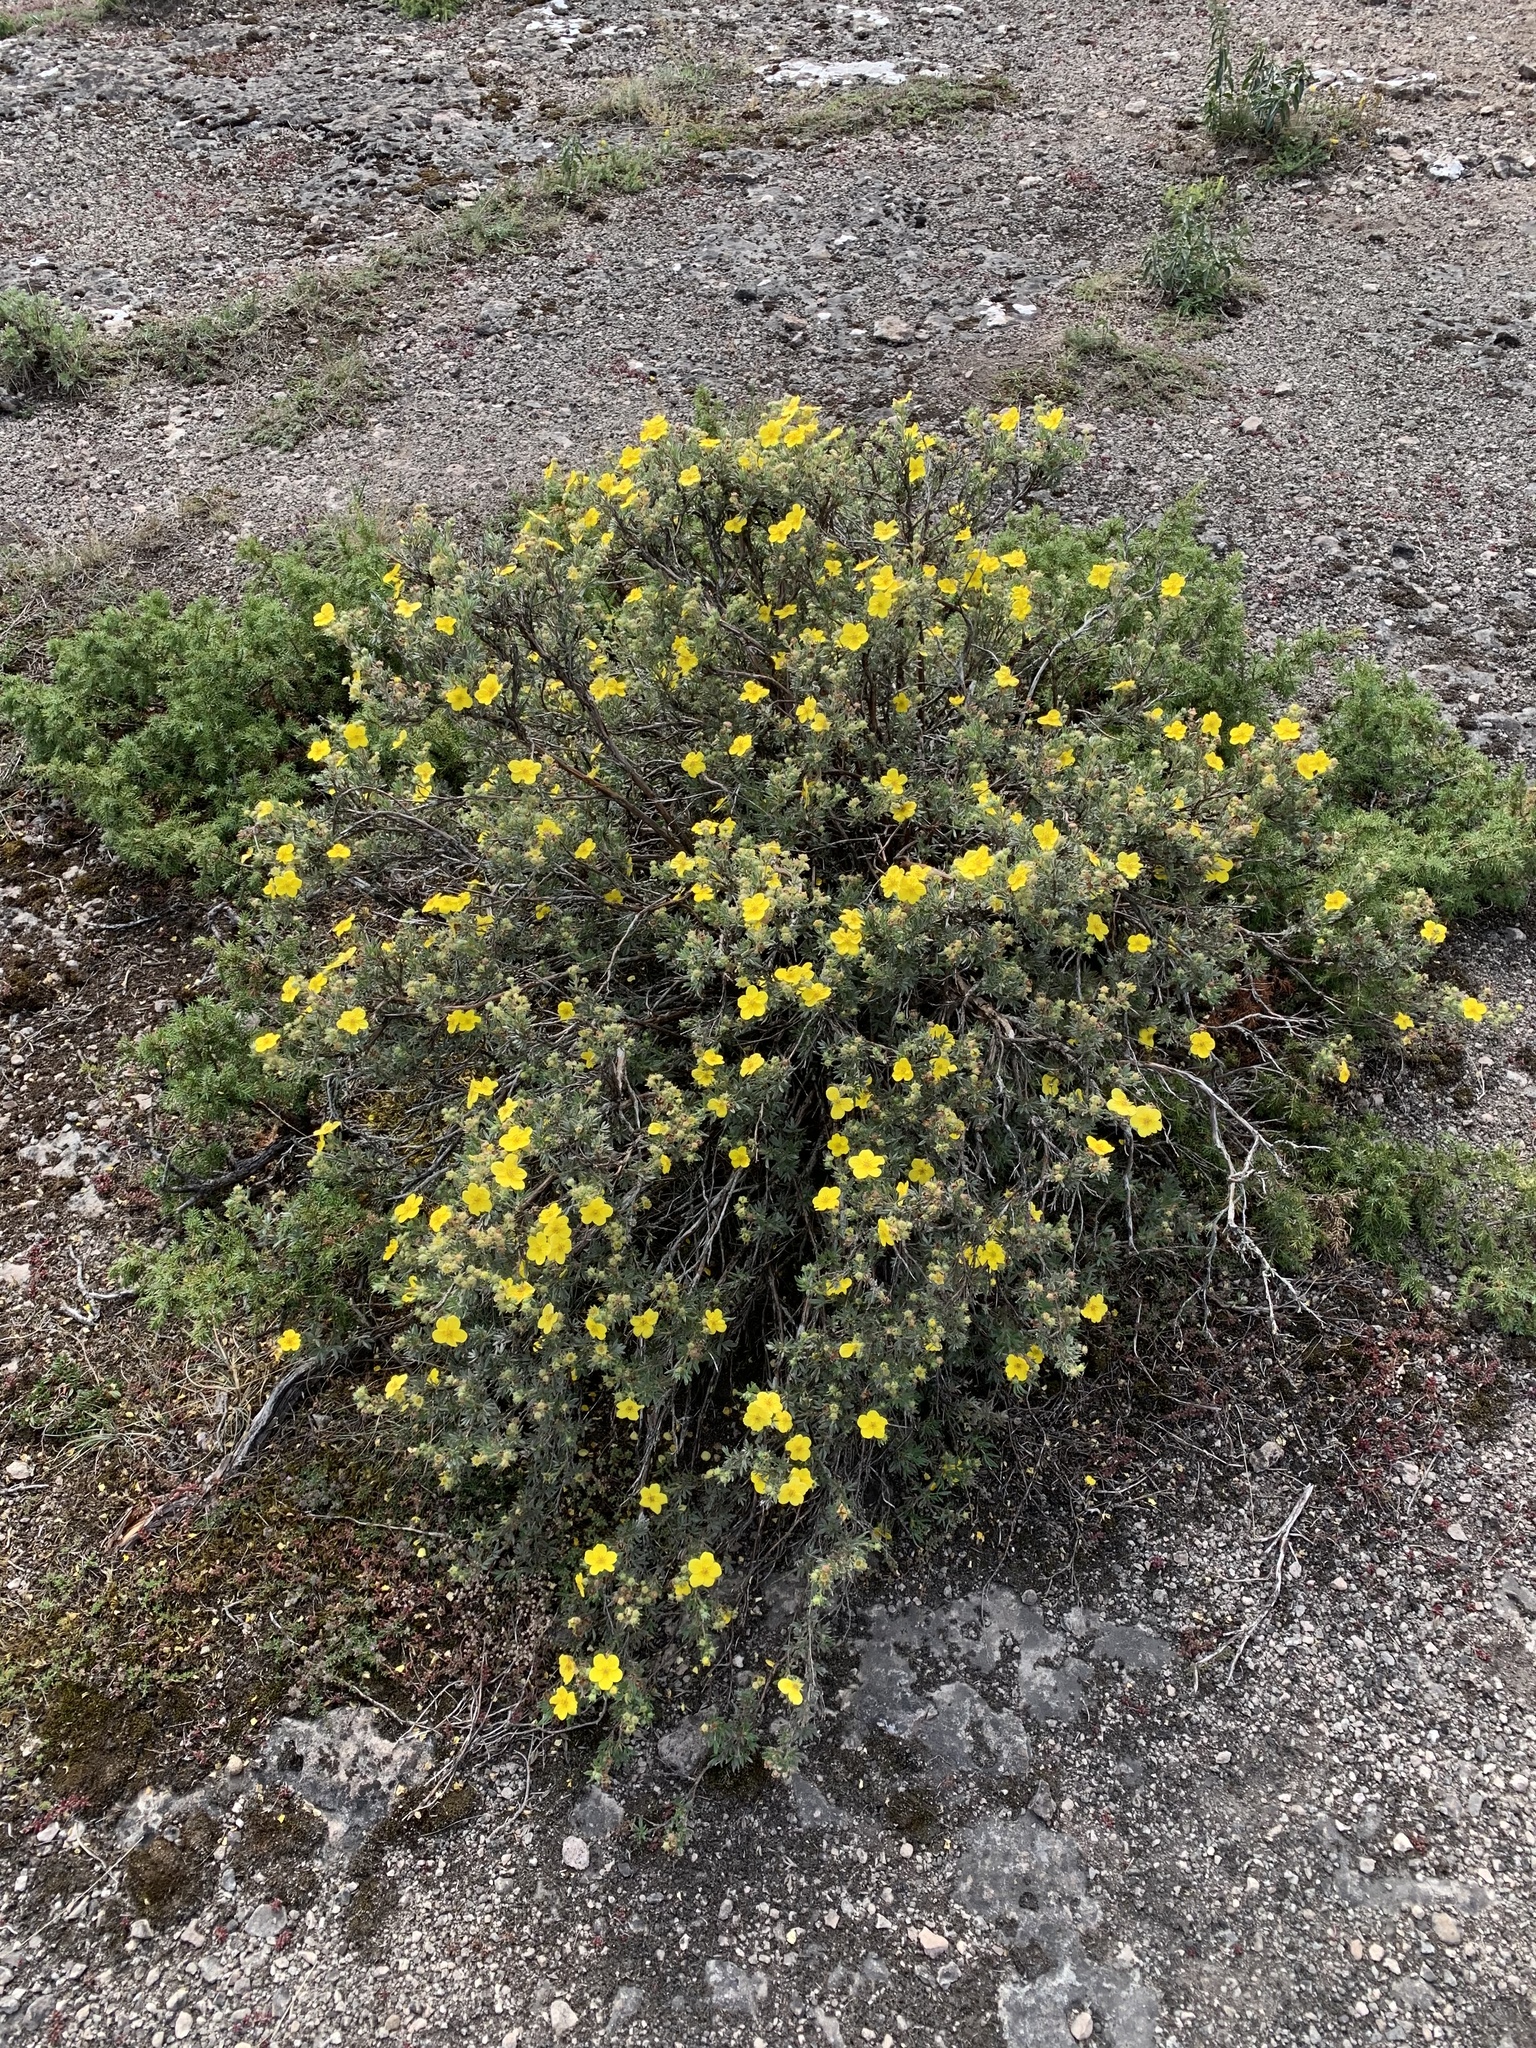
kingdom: Plantae
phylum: Tracheophyta
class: Magnoliopsida
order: Rosales
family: Rosaceae
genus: Dasiphora
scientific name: Dasiphora fruticosa
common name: Shrubby cinquefoil
